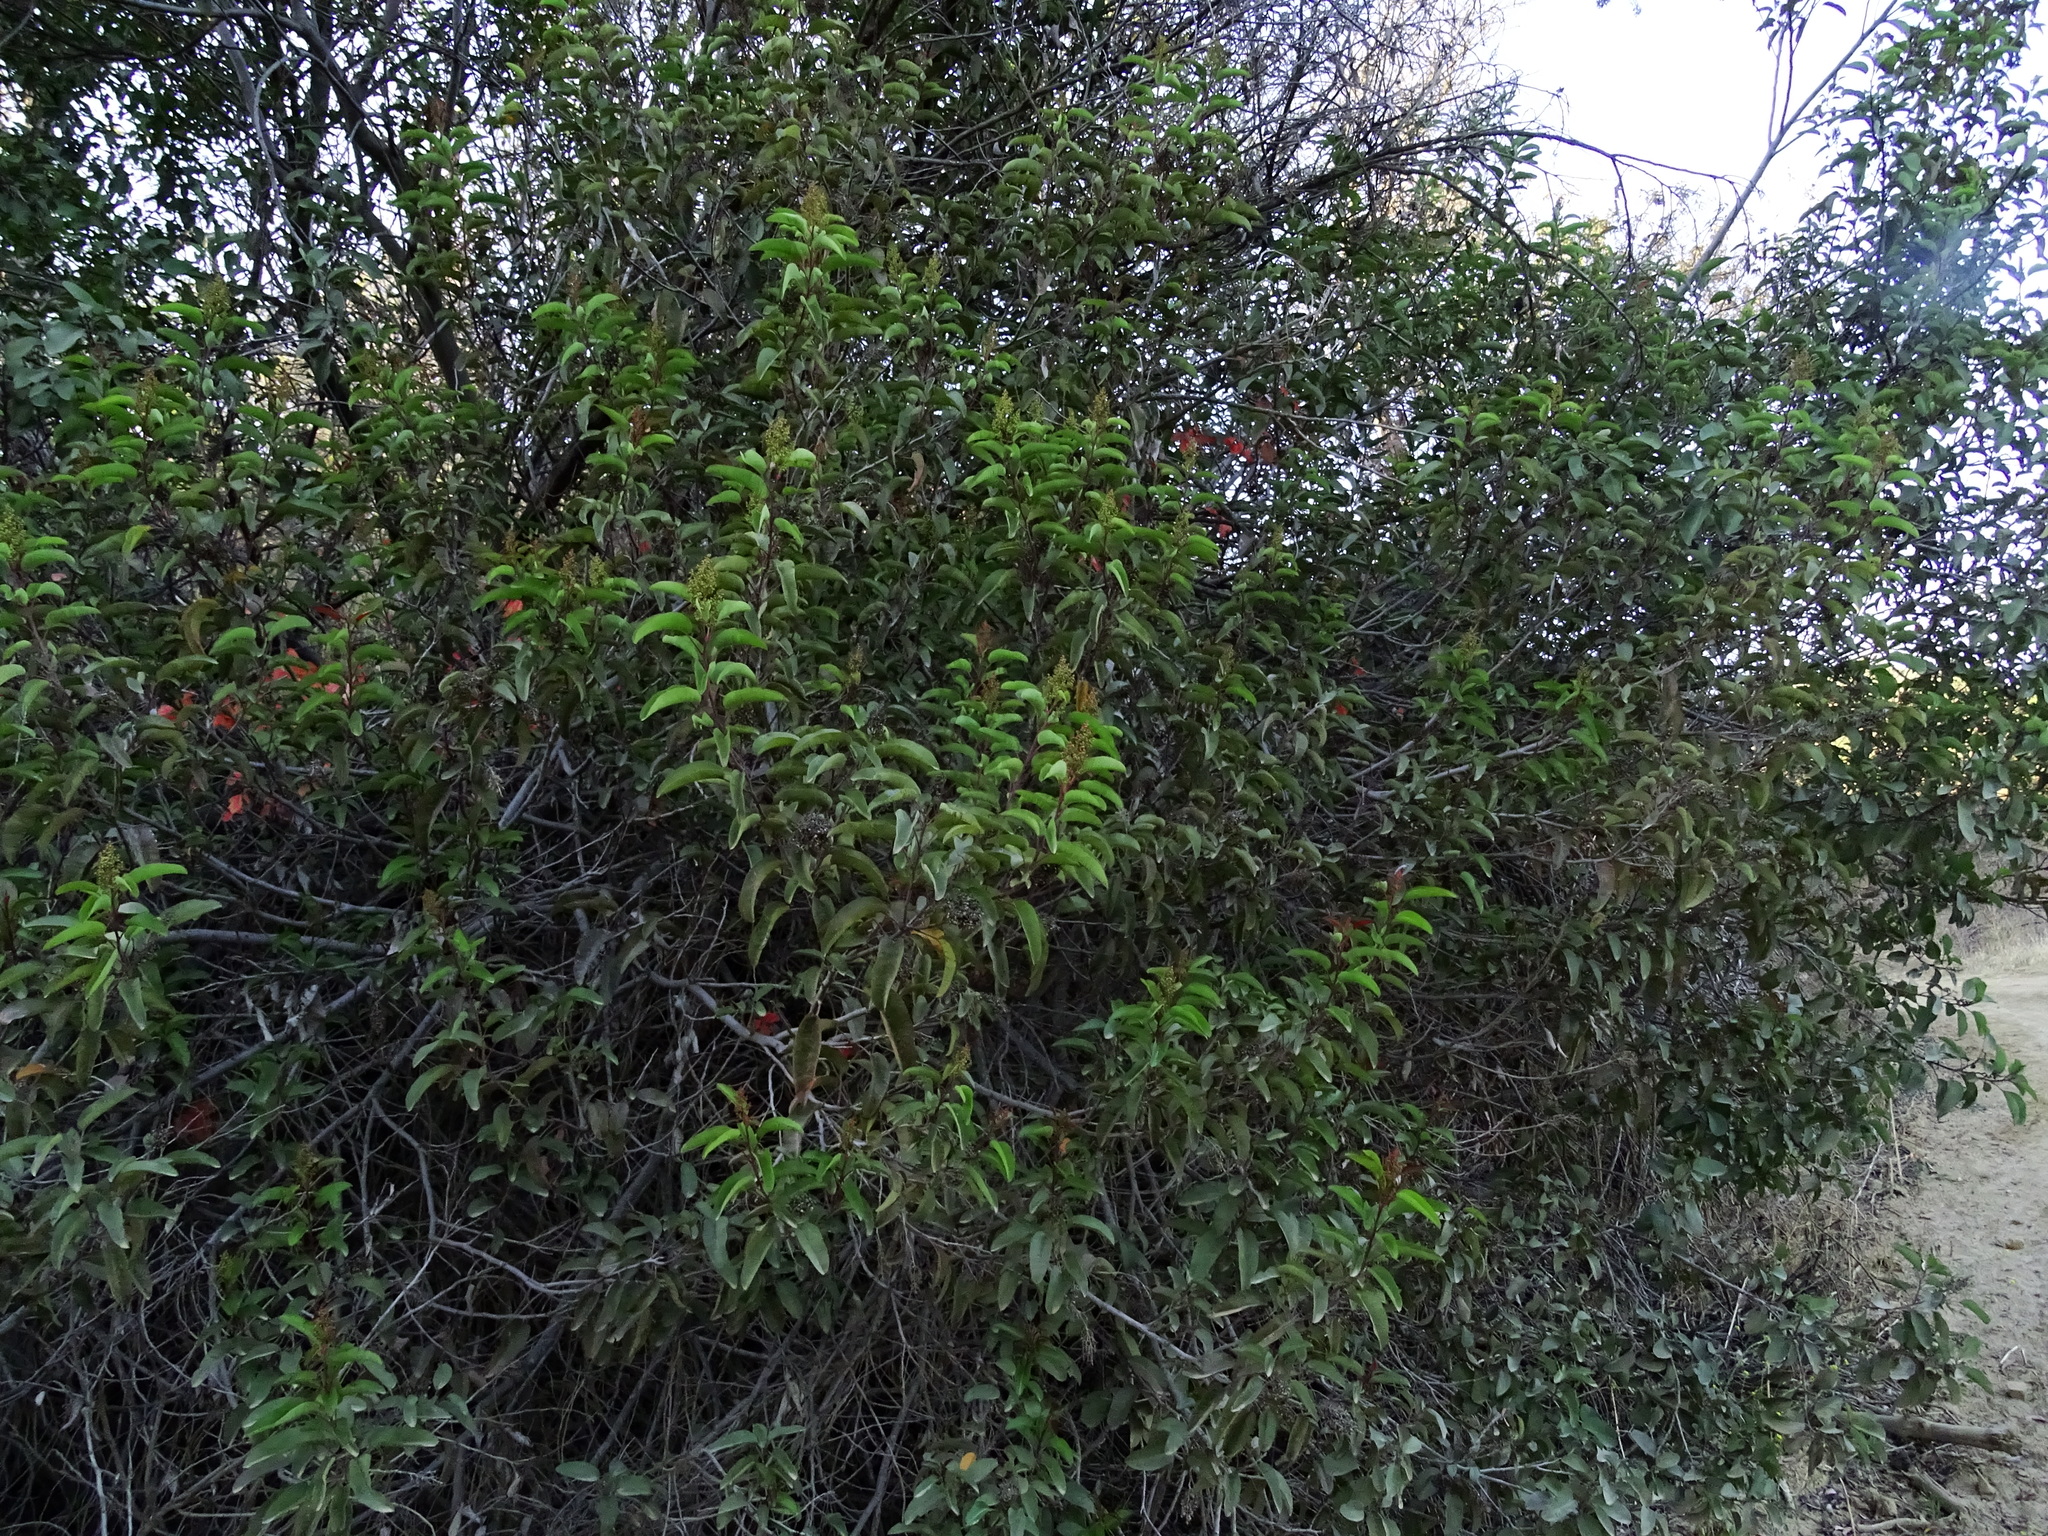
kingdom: Plantae
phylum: Tracheophyta
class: Magnoliopsida
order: Sapindales
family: Anacardiaceae
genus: Malosma
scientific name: Malosma laurina
